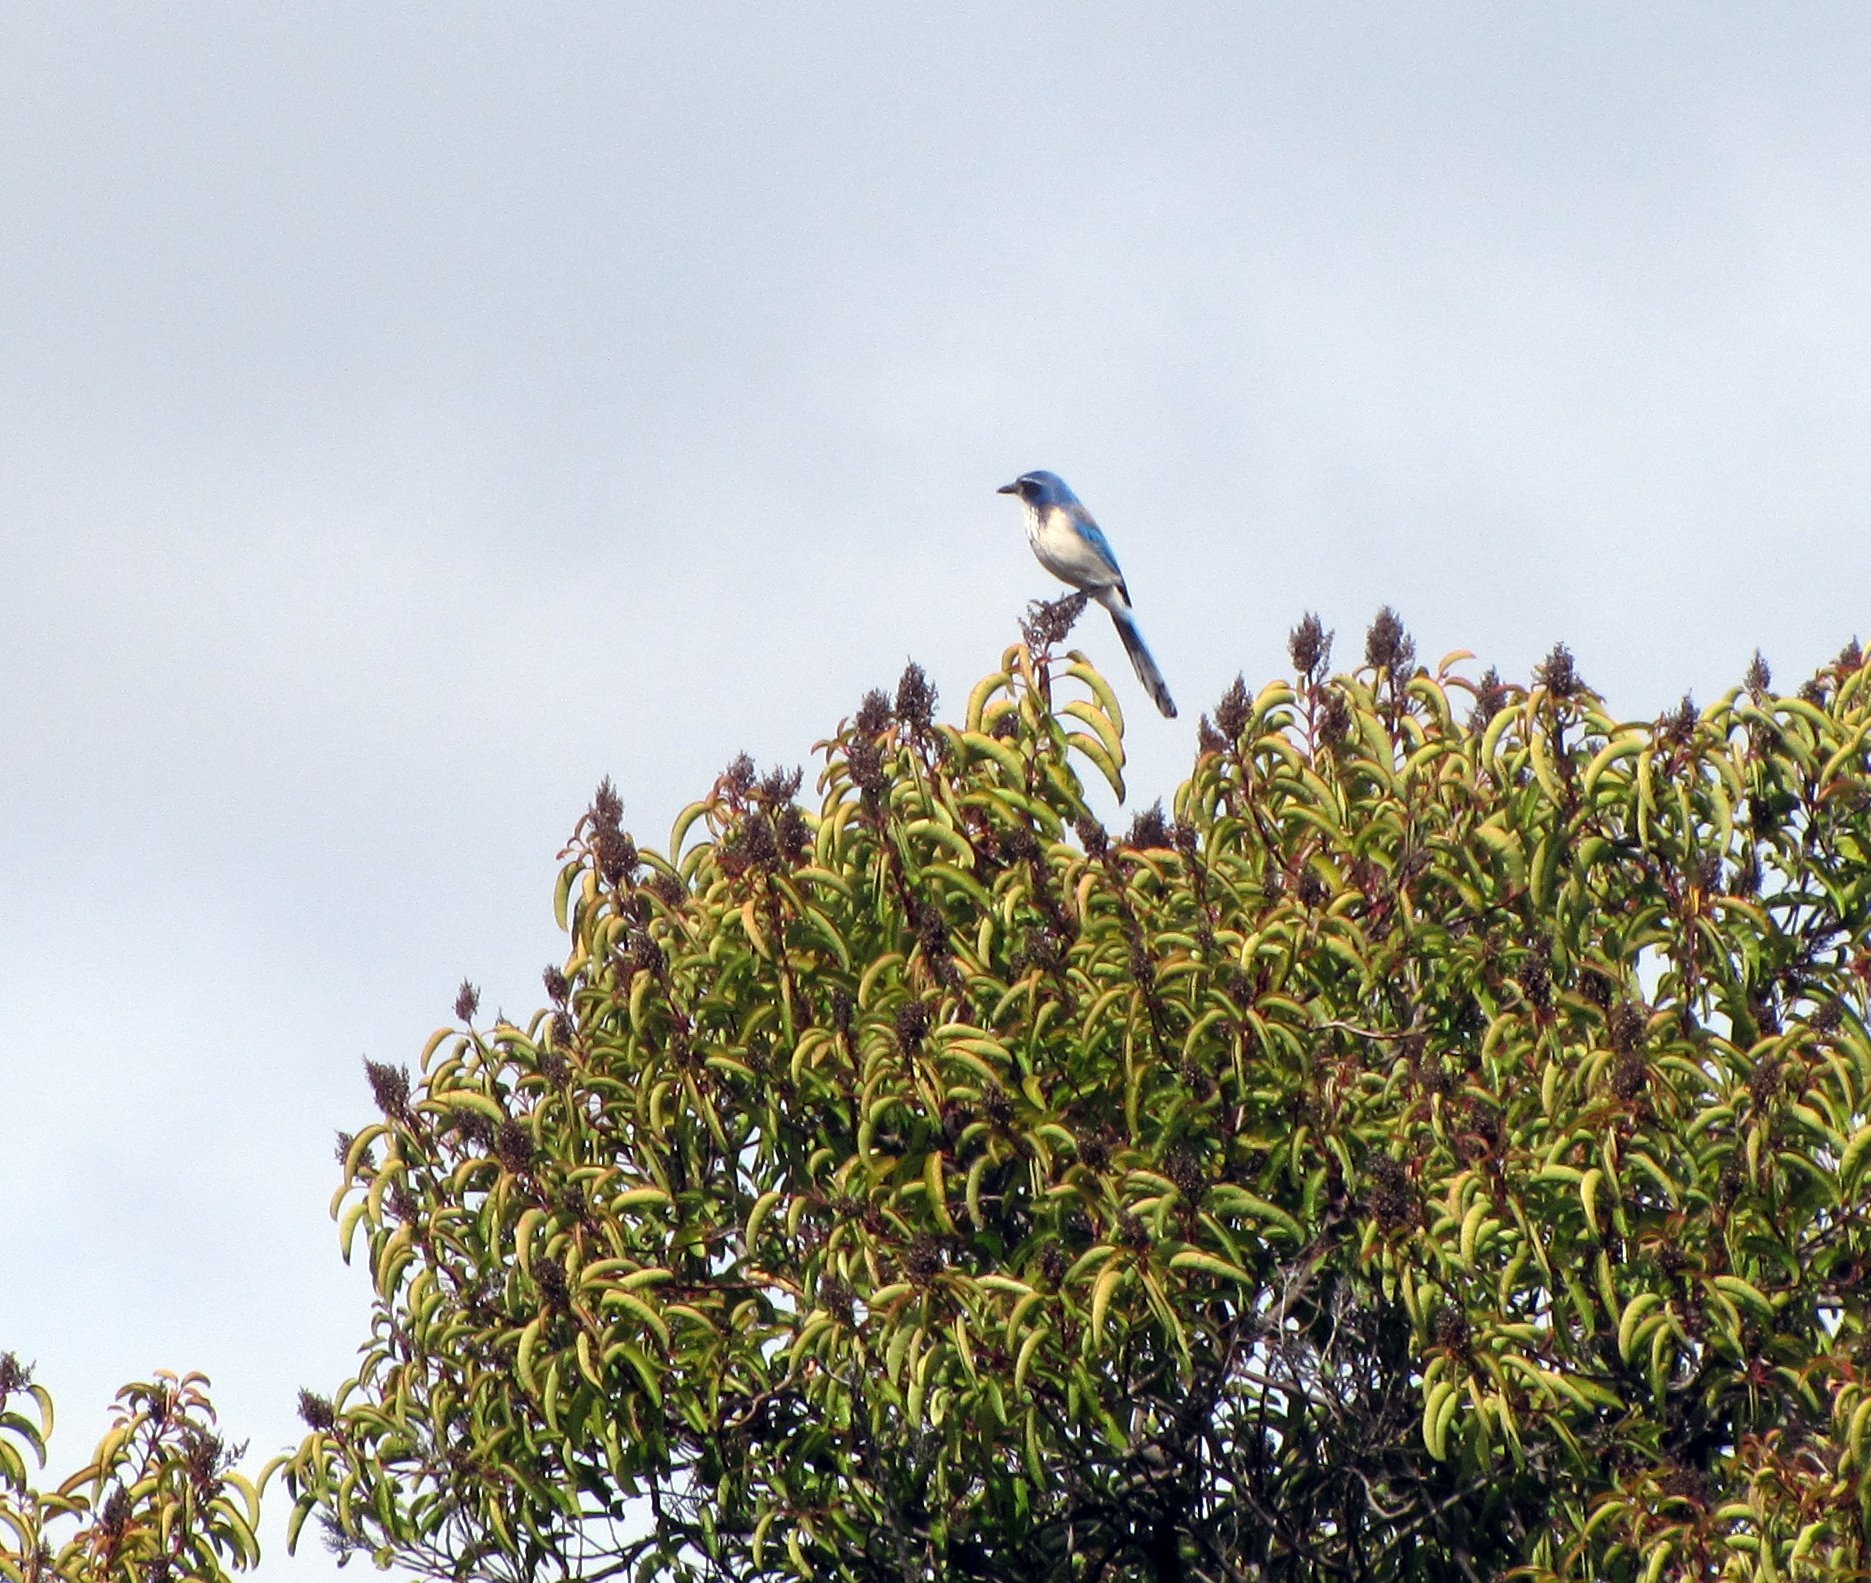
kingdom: Animalia
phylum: Chordata
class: Aves
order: Passeriformes
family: Corvidae
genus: Aphelocoma
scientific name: Aphelocoma californica
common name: California scrub-jay
